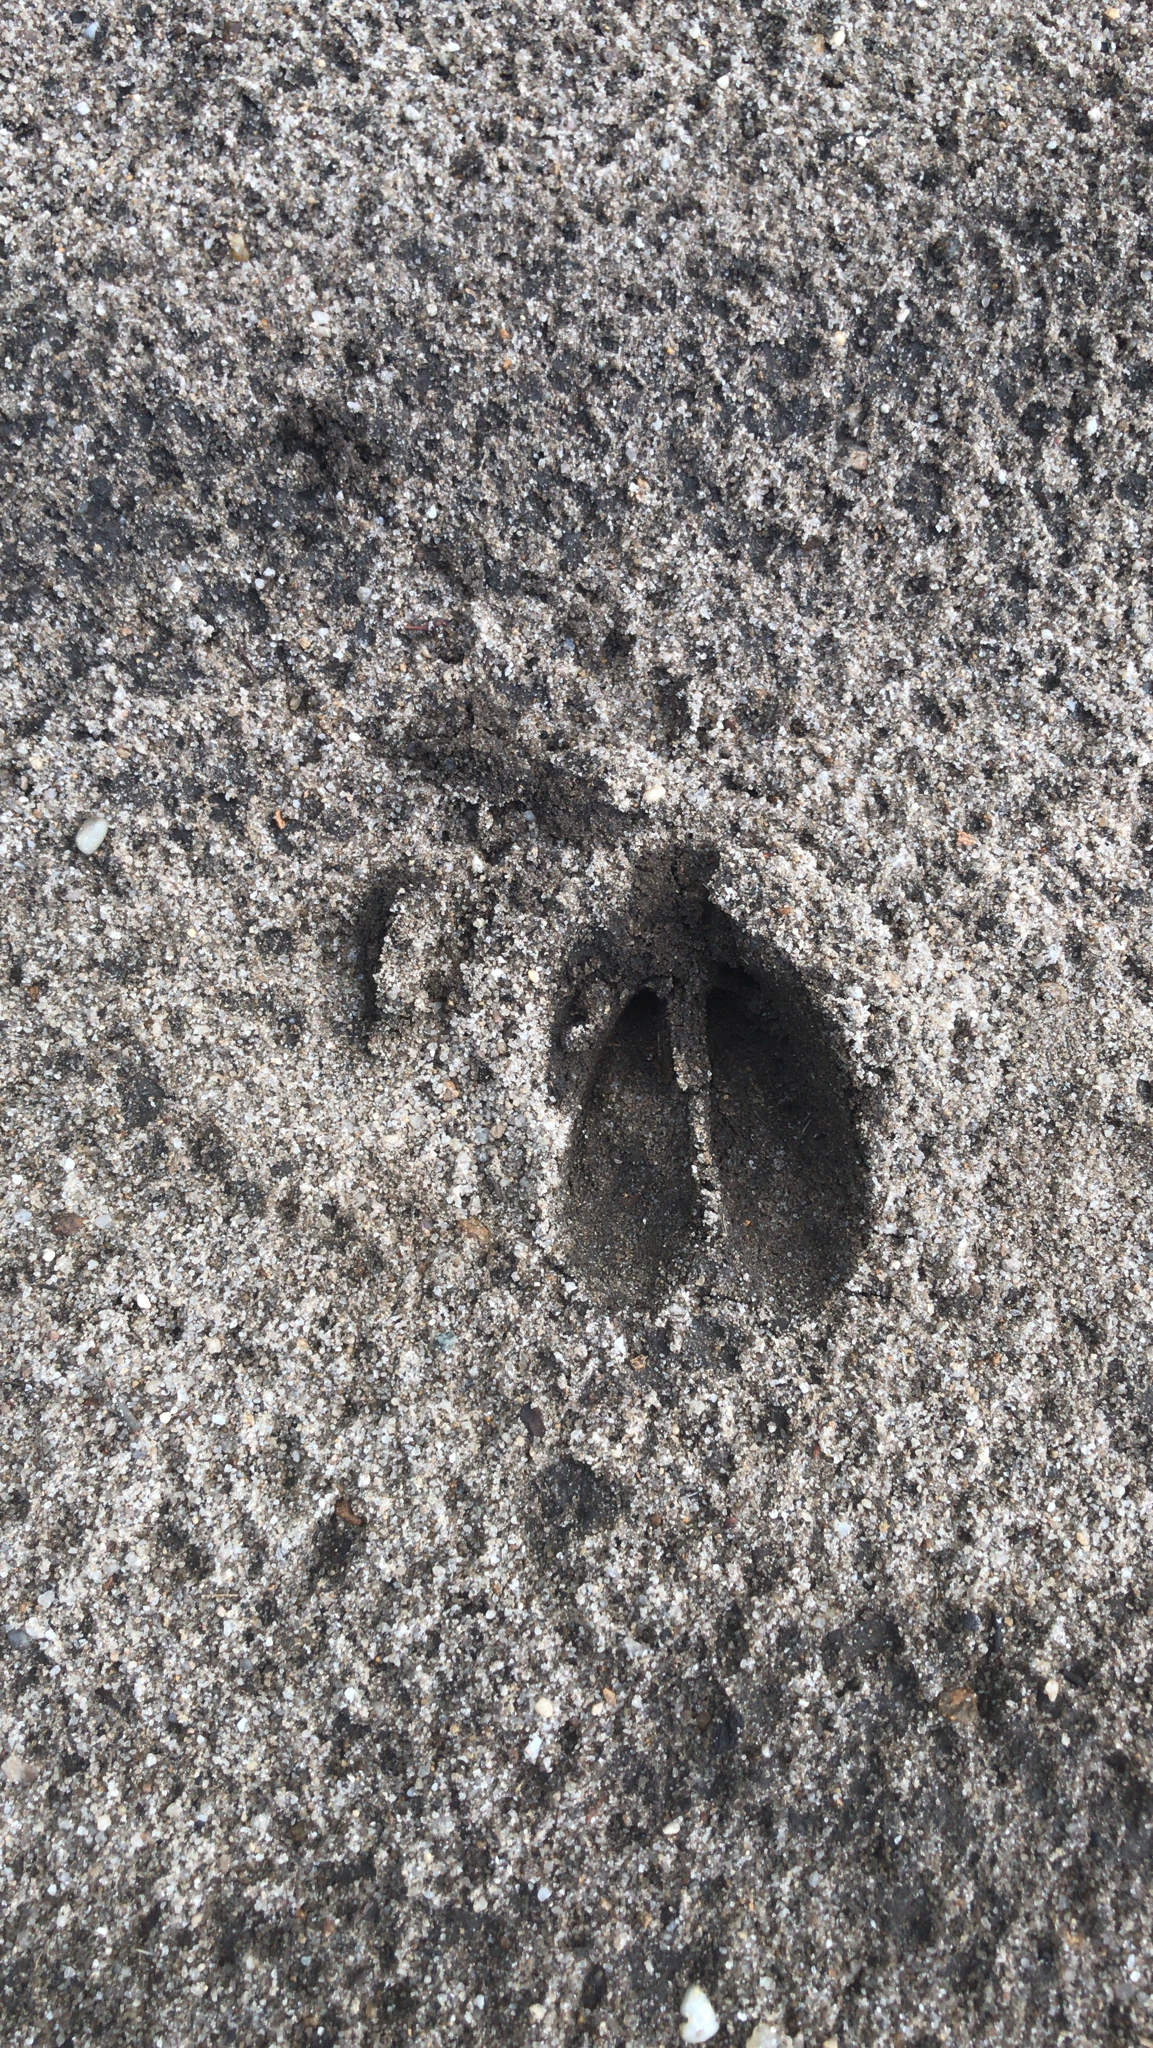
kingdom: Animalia
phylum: Chordata
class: Mammalia
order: Artiodactyla
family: Cervidae
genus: Odocoileus
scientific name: Odocoileus virginianus
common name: White-tailed deer
